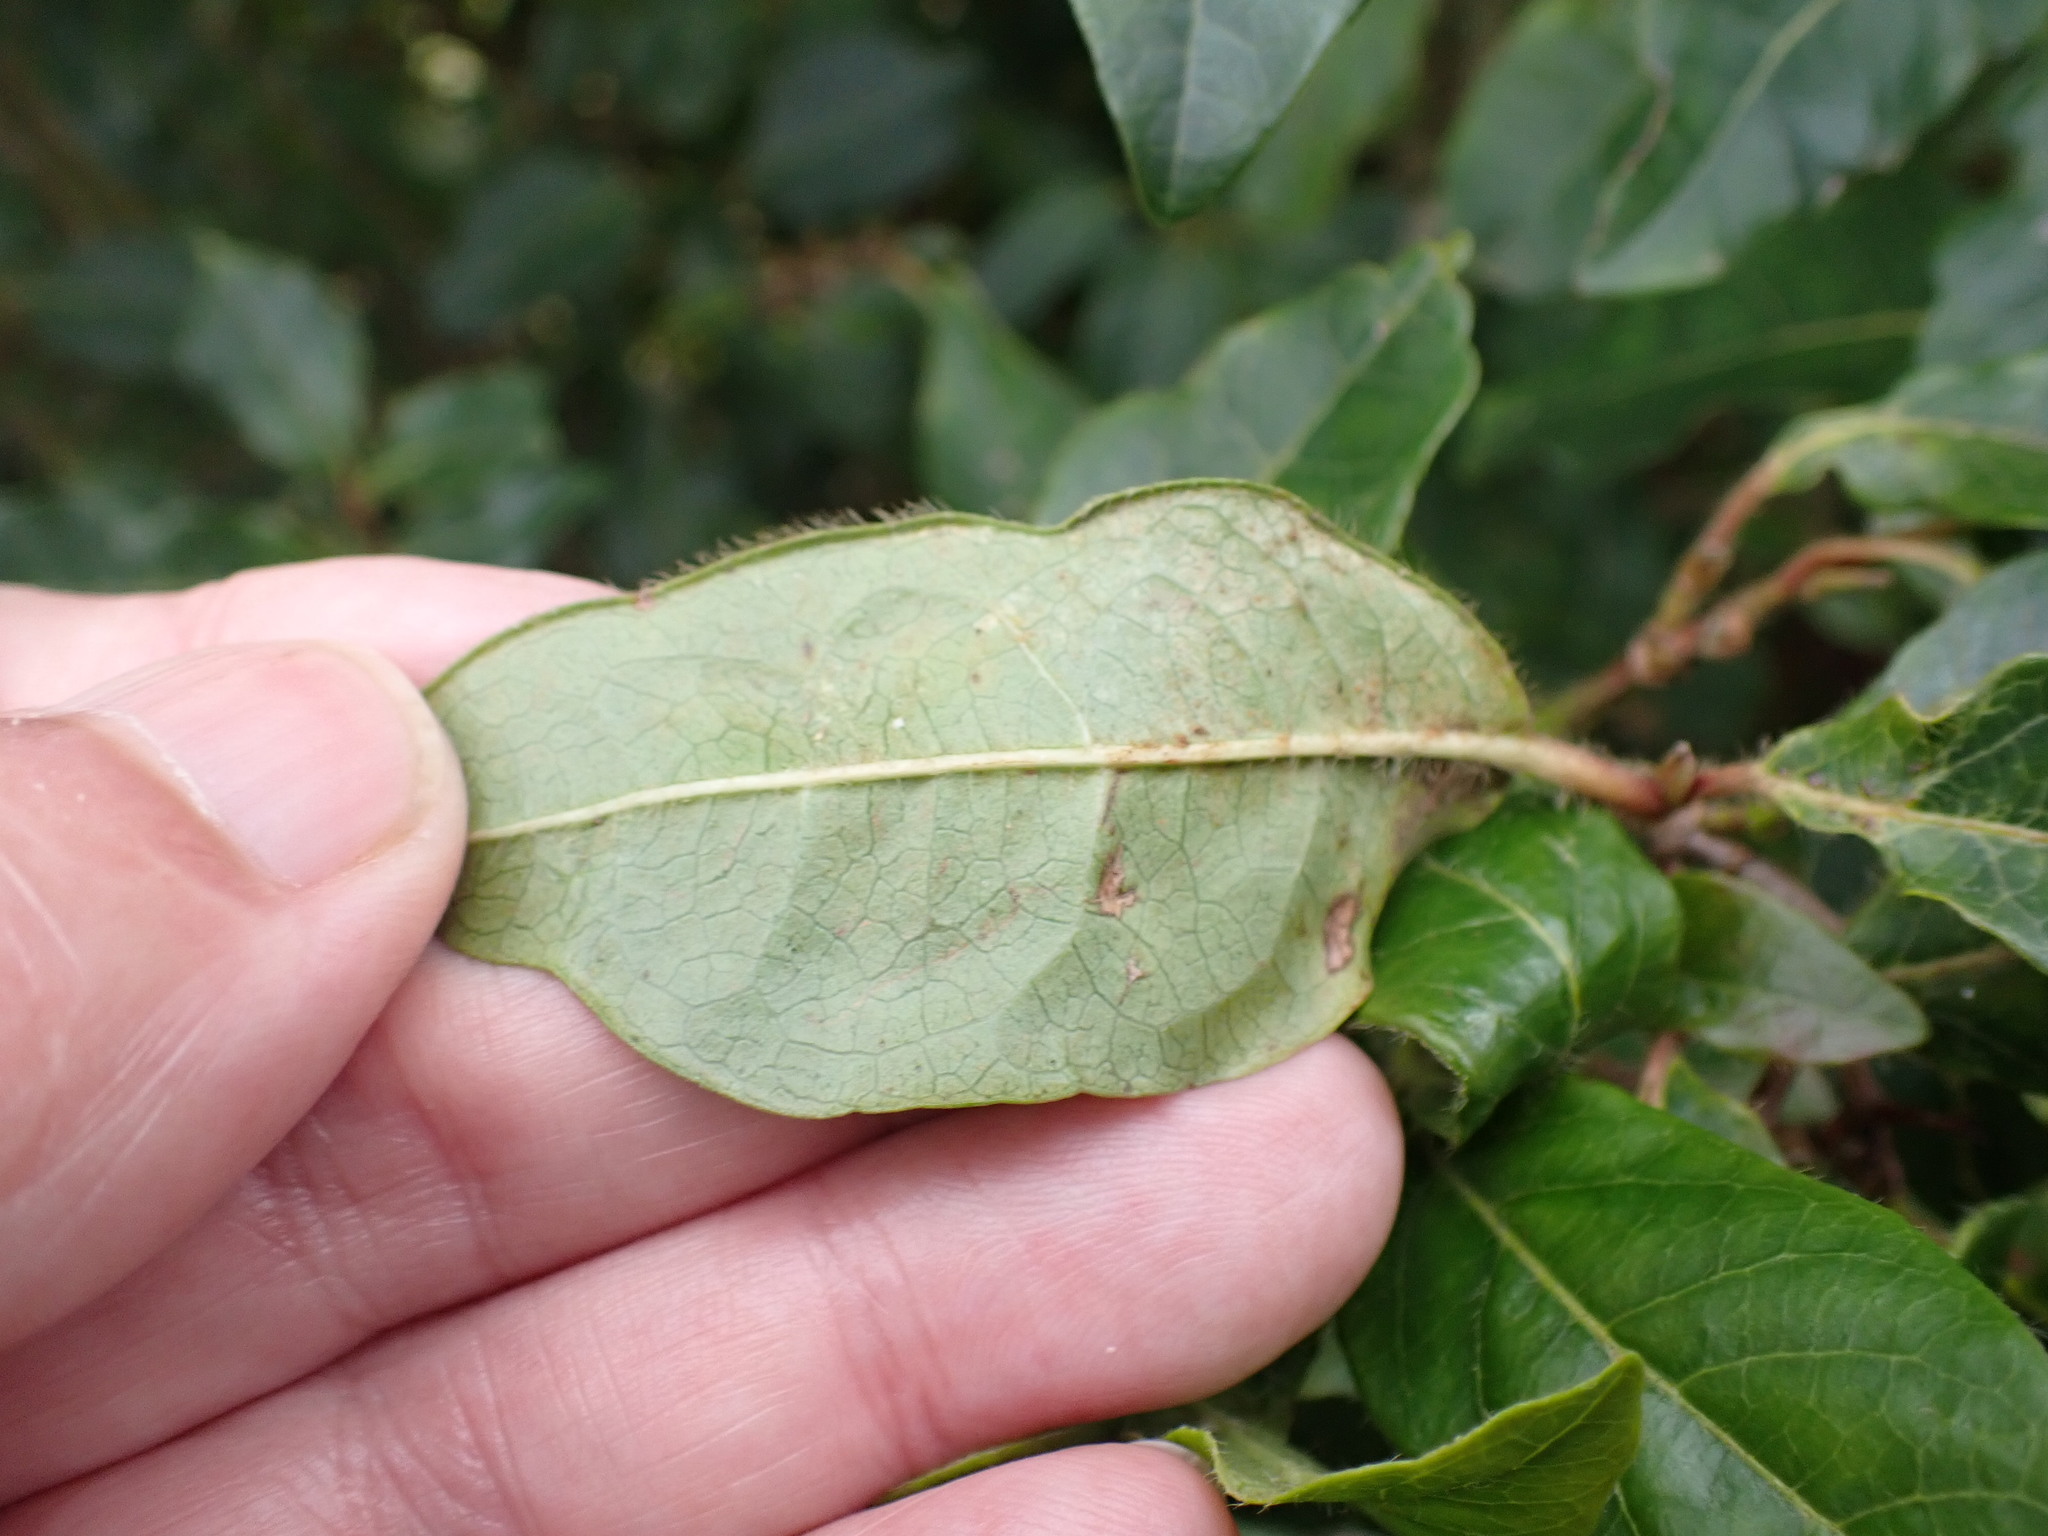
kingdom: Plantae
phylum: Tracheophyta
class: Magnoliopsida
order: Dipsacales
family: Viburnaceae
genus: Viburnum
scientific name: Viburnum tinus
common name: Laurustinus
